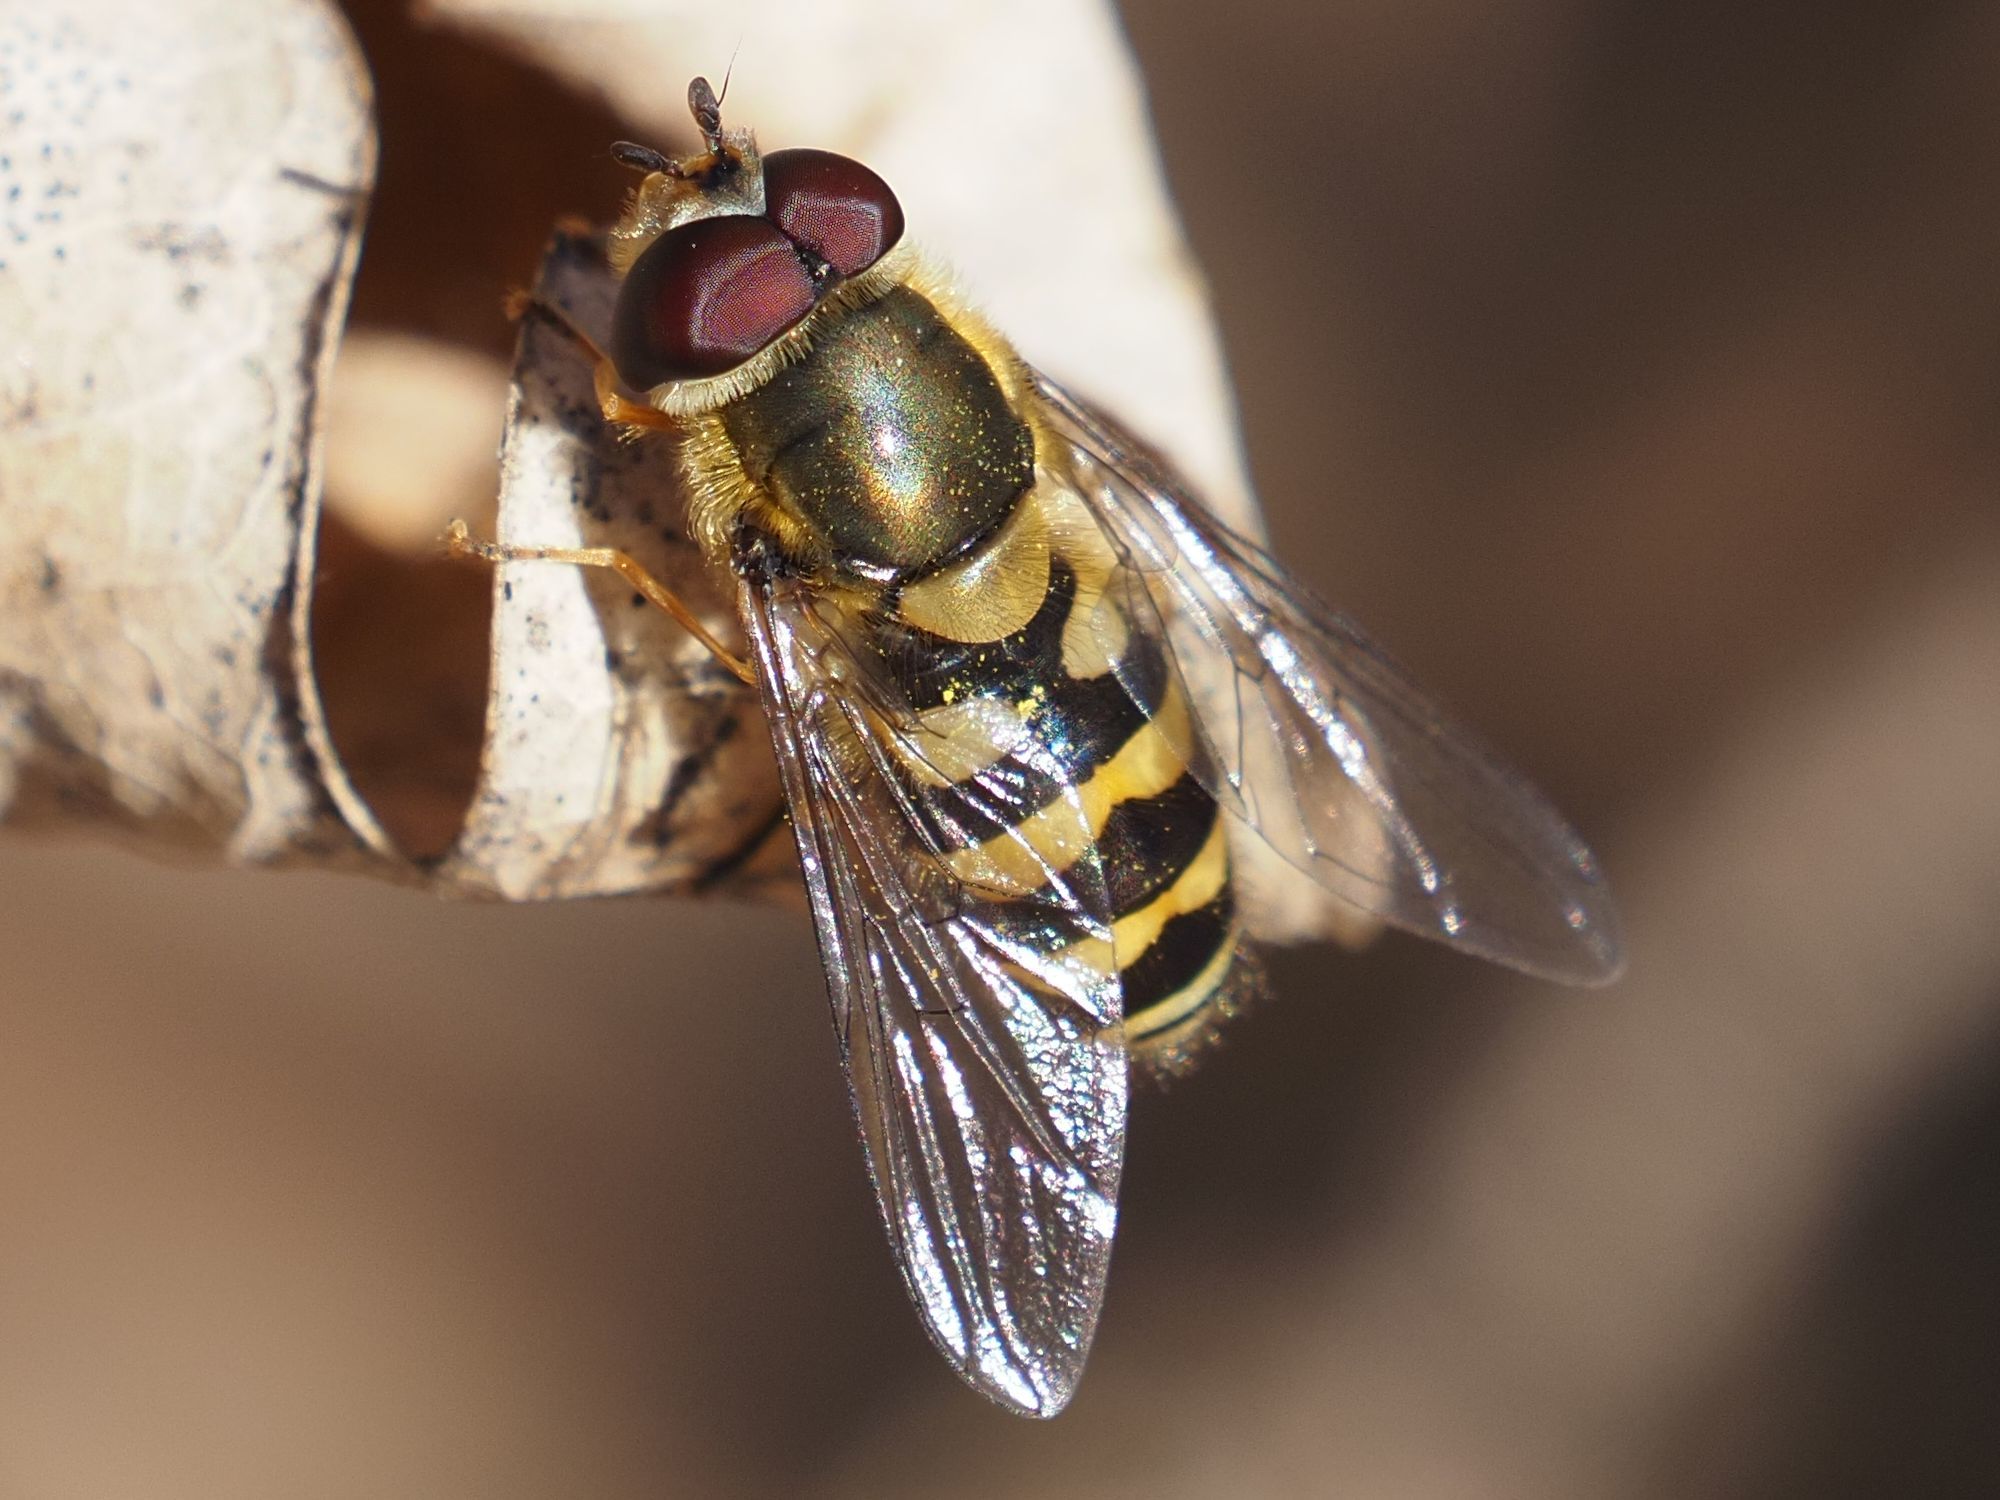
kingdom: Animalia
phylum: Arthropoda
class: Insecta
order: Diptera
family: Syrphidae
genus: Syrphus
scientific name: Syrphus
